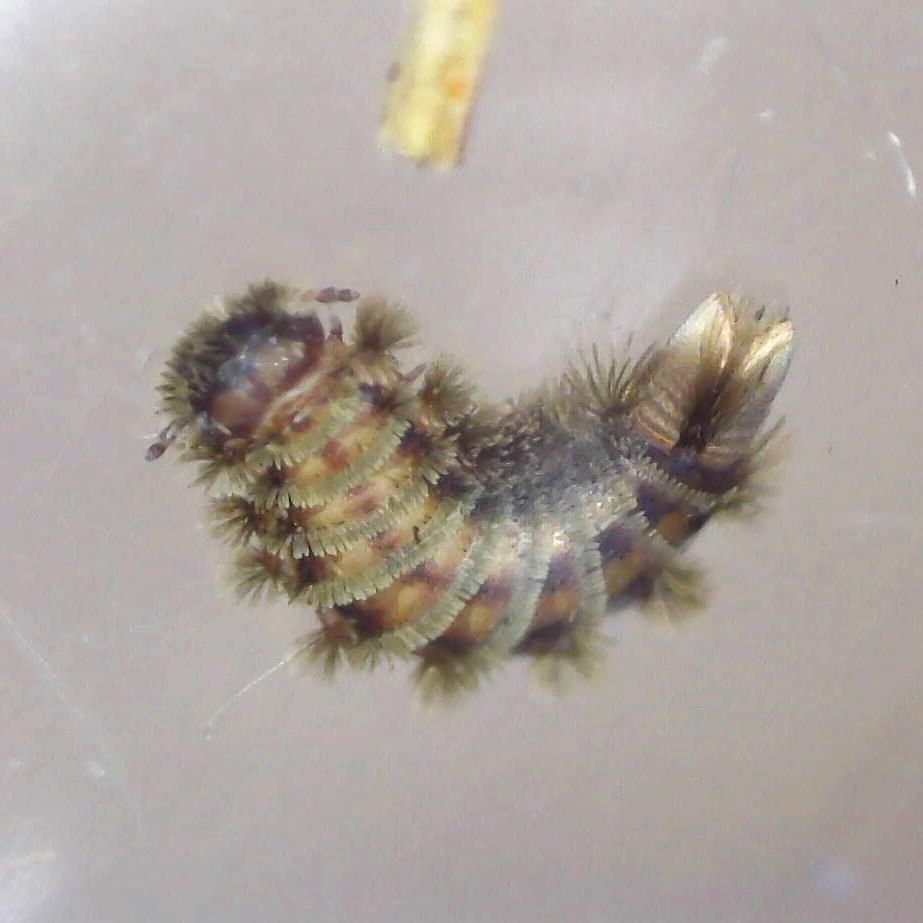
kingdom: Animalia
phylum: Arthropoda
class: Diplopoda
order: Polyxenida
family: Polyxenidae
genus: Polyxenus
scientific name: Polyxenus lagurus
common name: Bristly millipede
